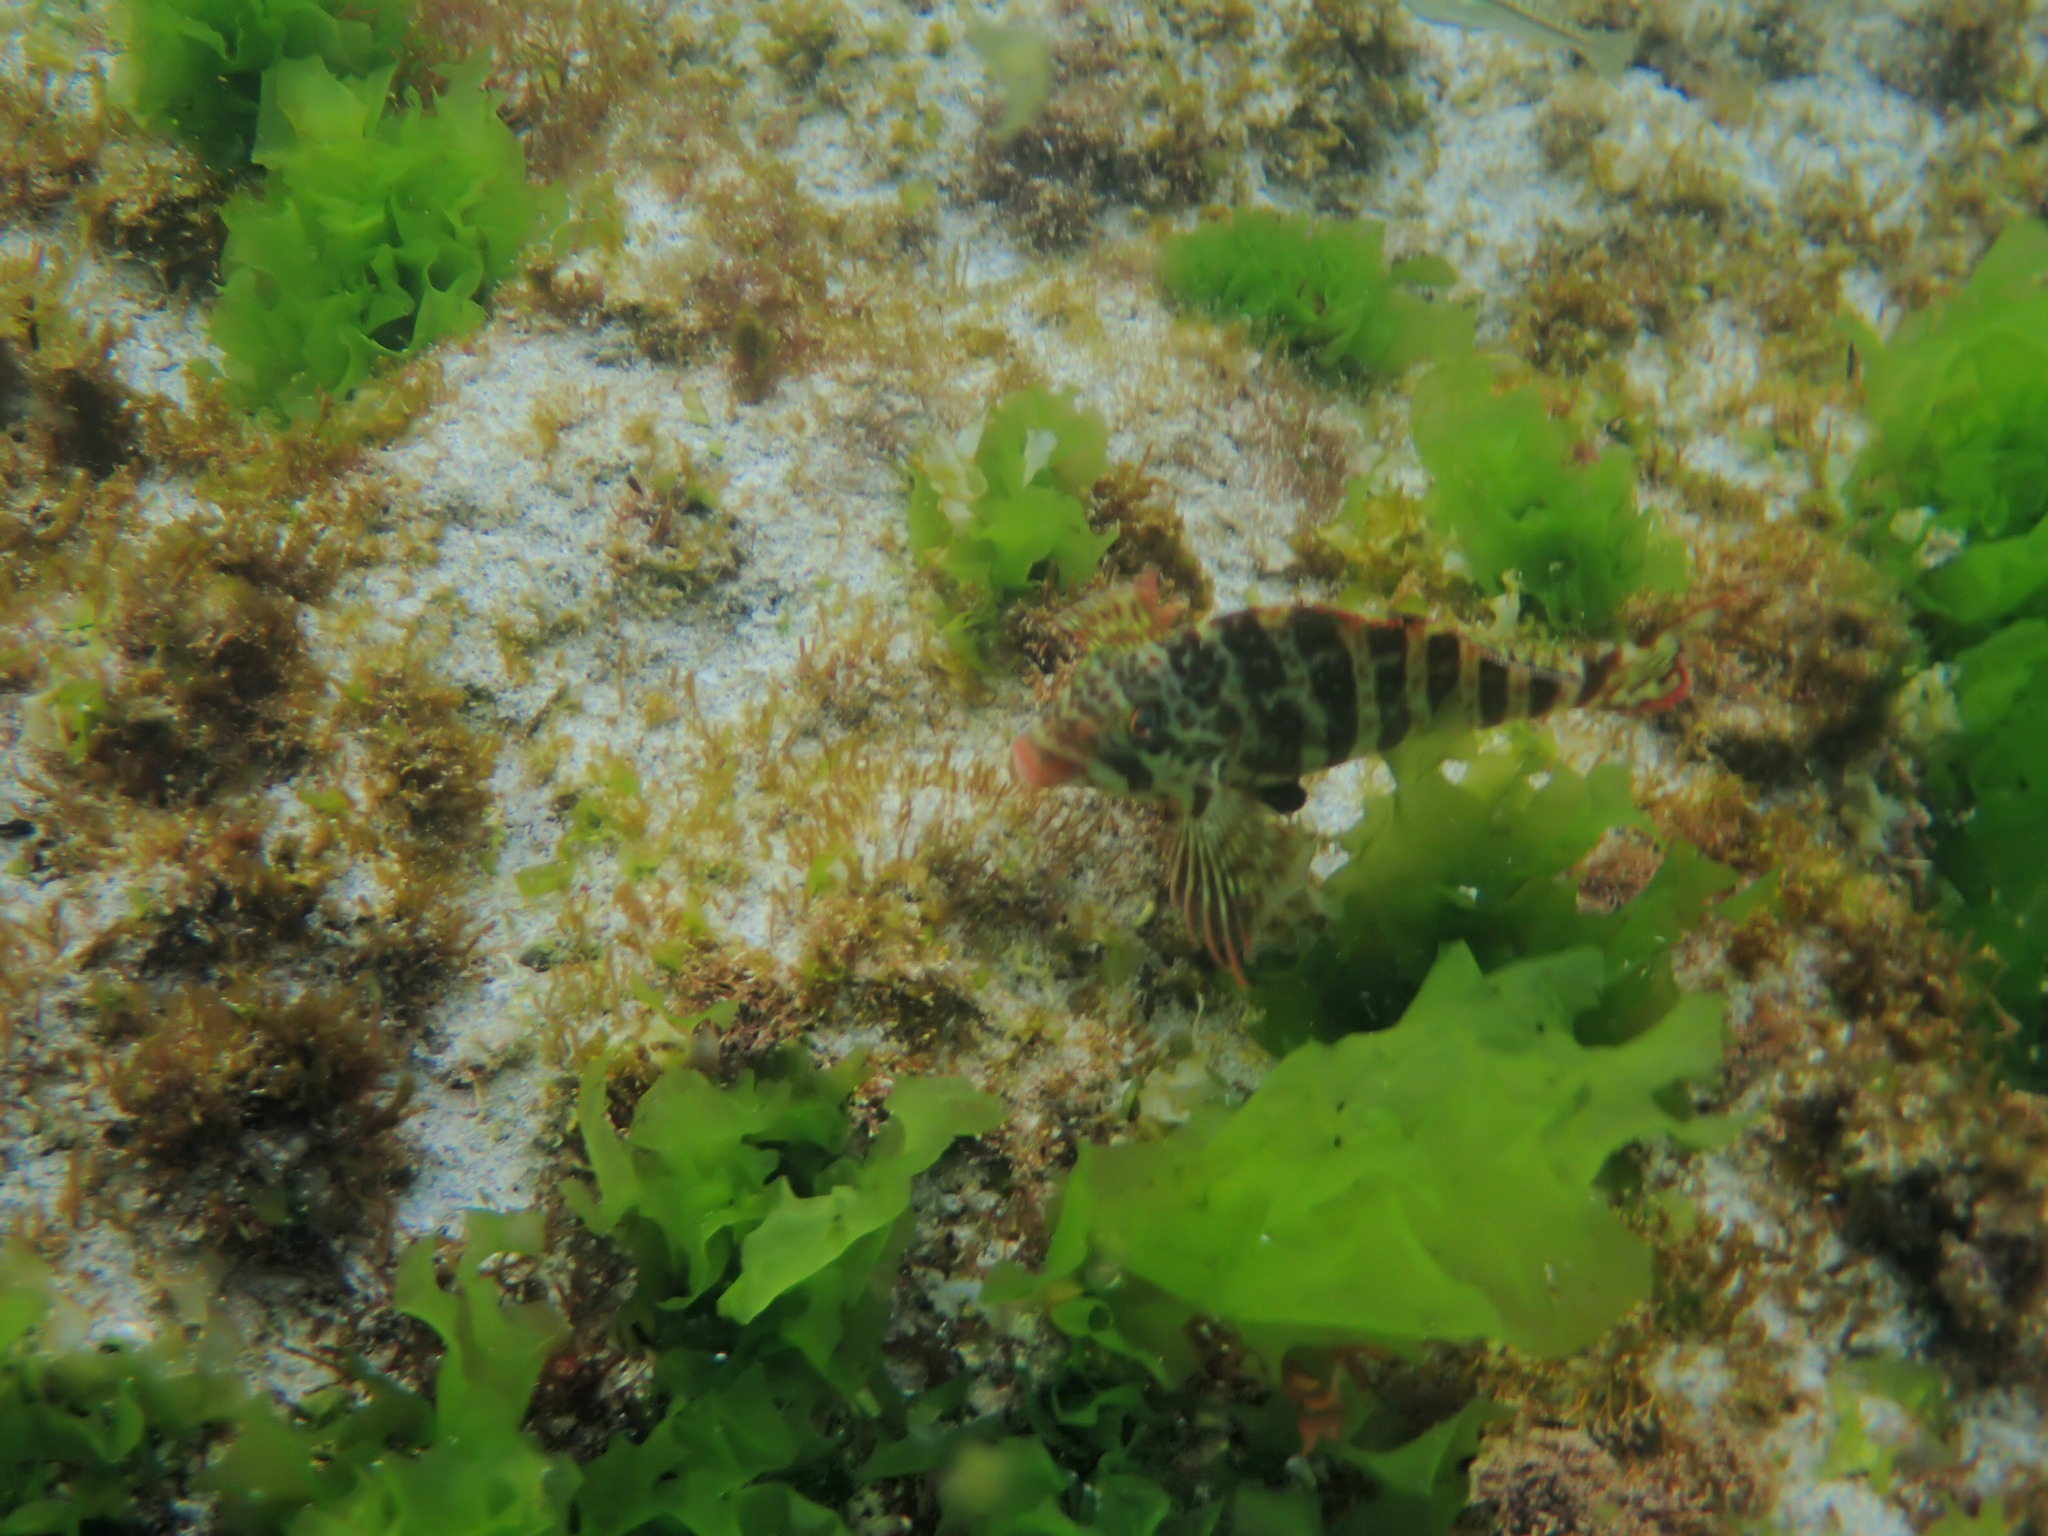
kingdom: Animalia
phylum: Chordata
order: Perciformes
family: Cheilodactylidae
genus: Cheilodactylus
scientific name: Cheilodactylus rubrolabiatus
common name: Redlip morwong
